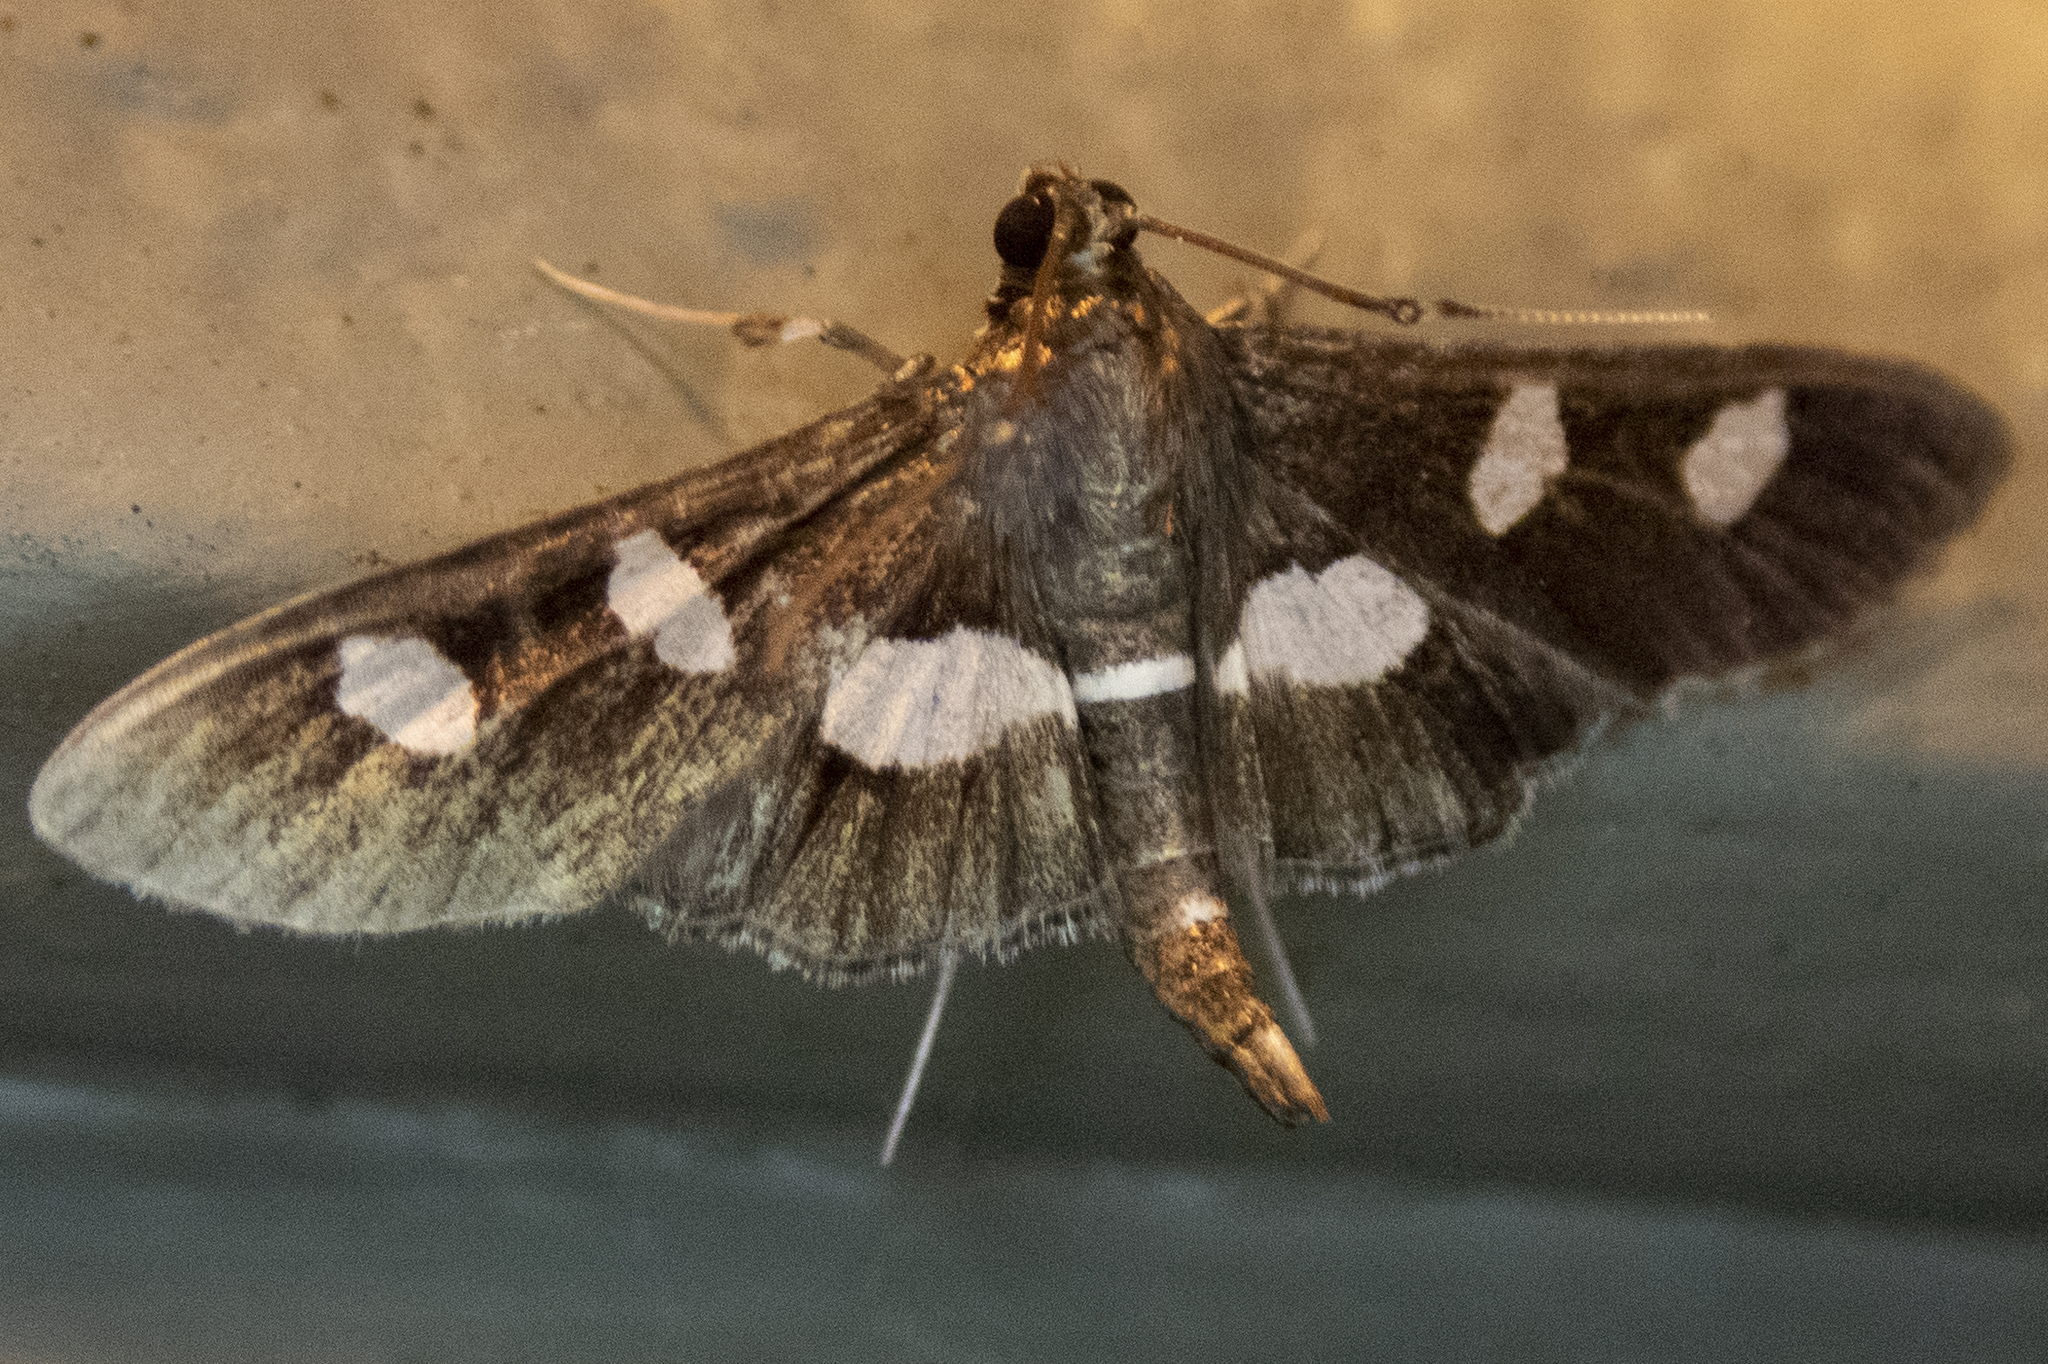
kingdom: Animalia
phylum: Arthropoda
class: Insecta
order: Lepidoptera
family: Crambidae
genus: Desmia
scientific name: Desmia
